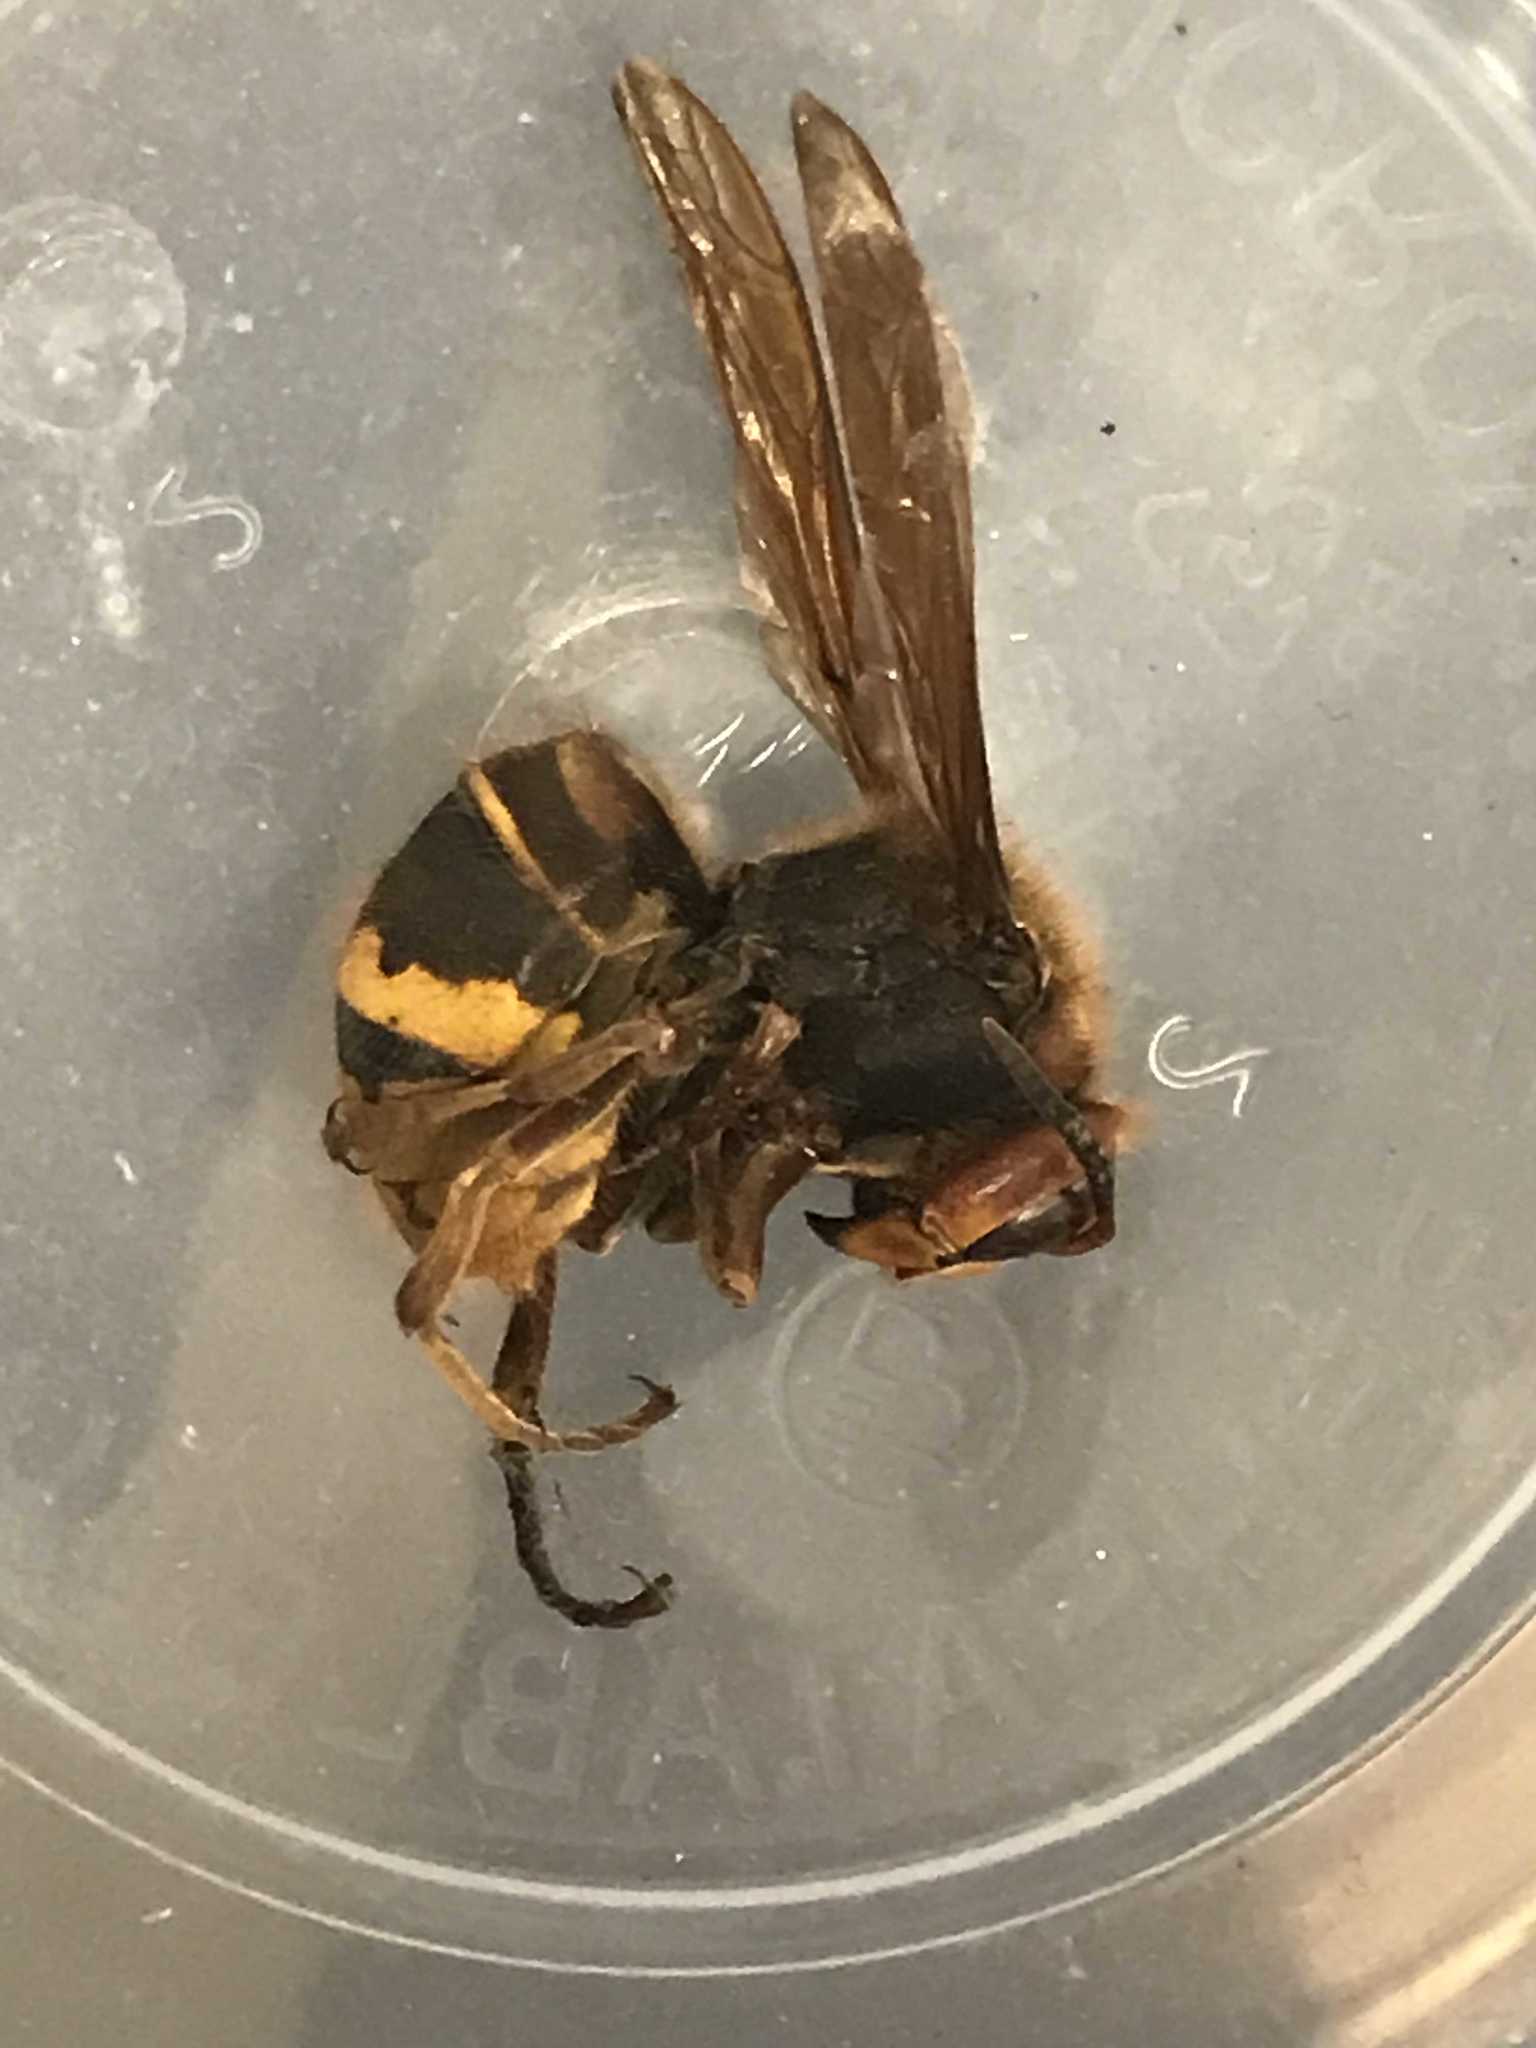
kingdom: Animalia
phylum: Arthropoda
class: Insecta
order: Hymenoptera
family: Vespidae
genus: Vespa
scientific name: Vespa crabro
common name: Hornet
